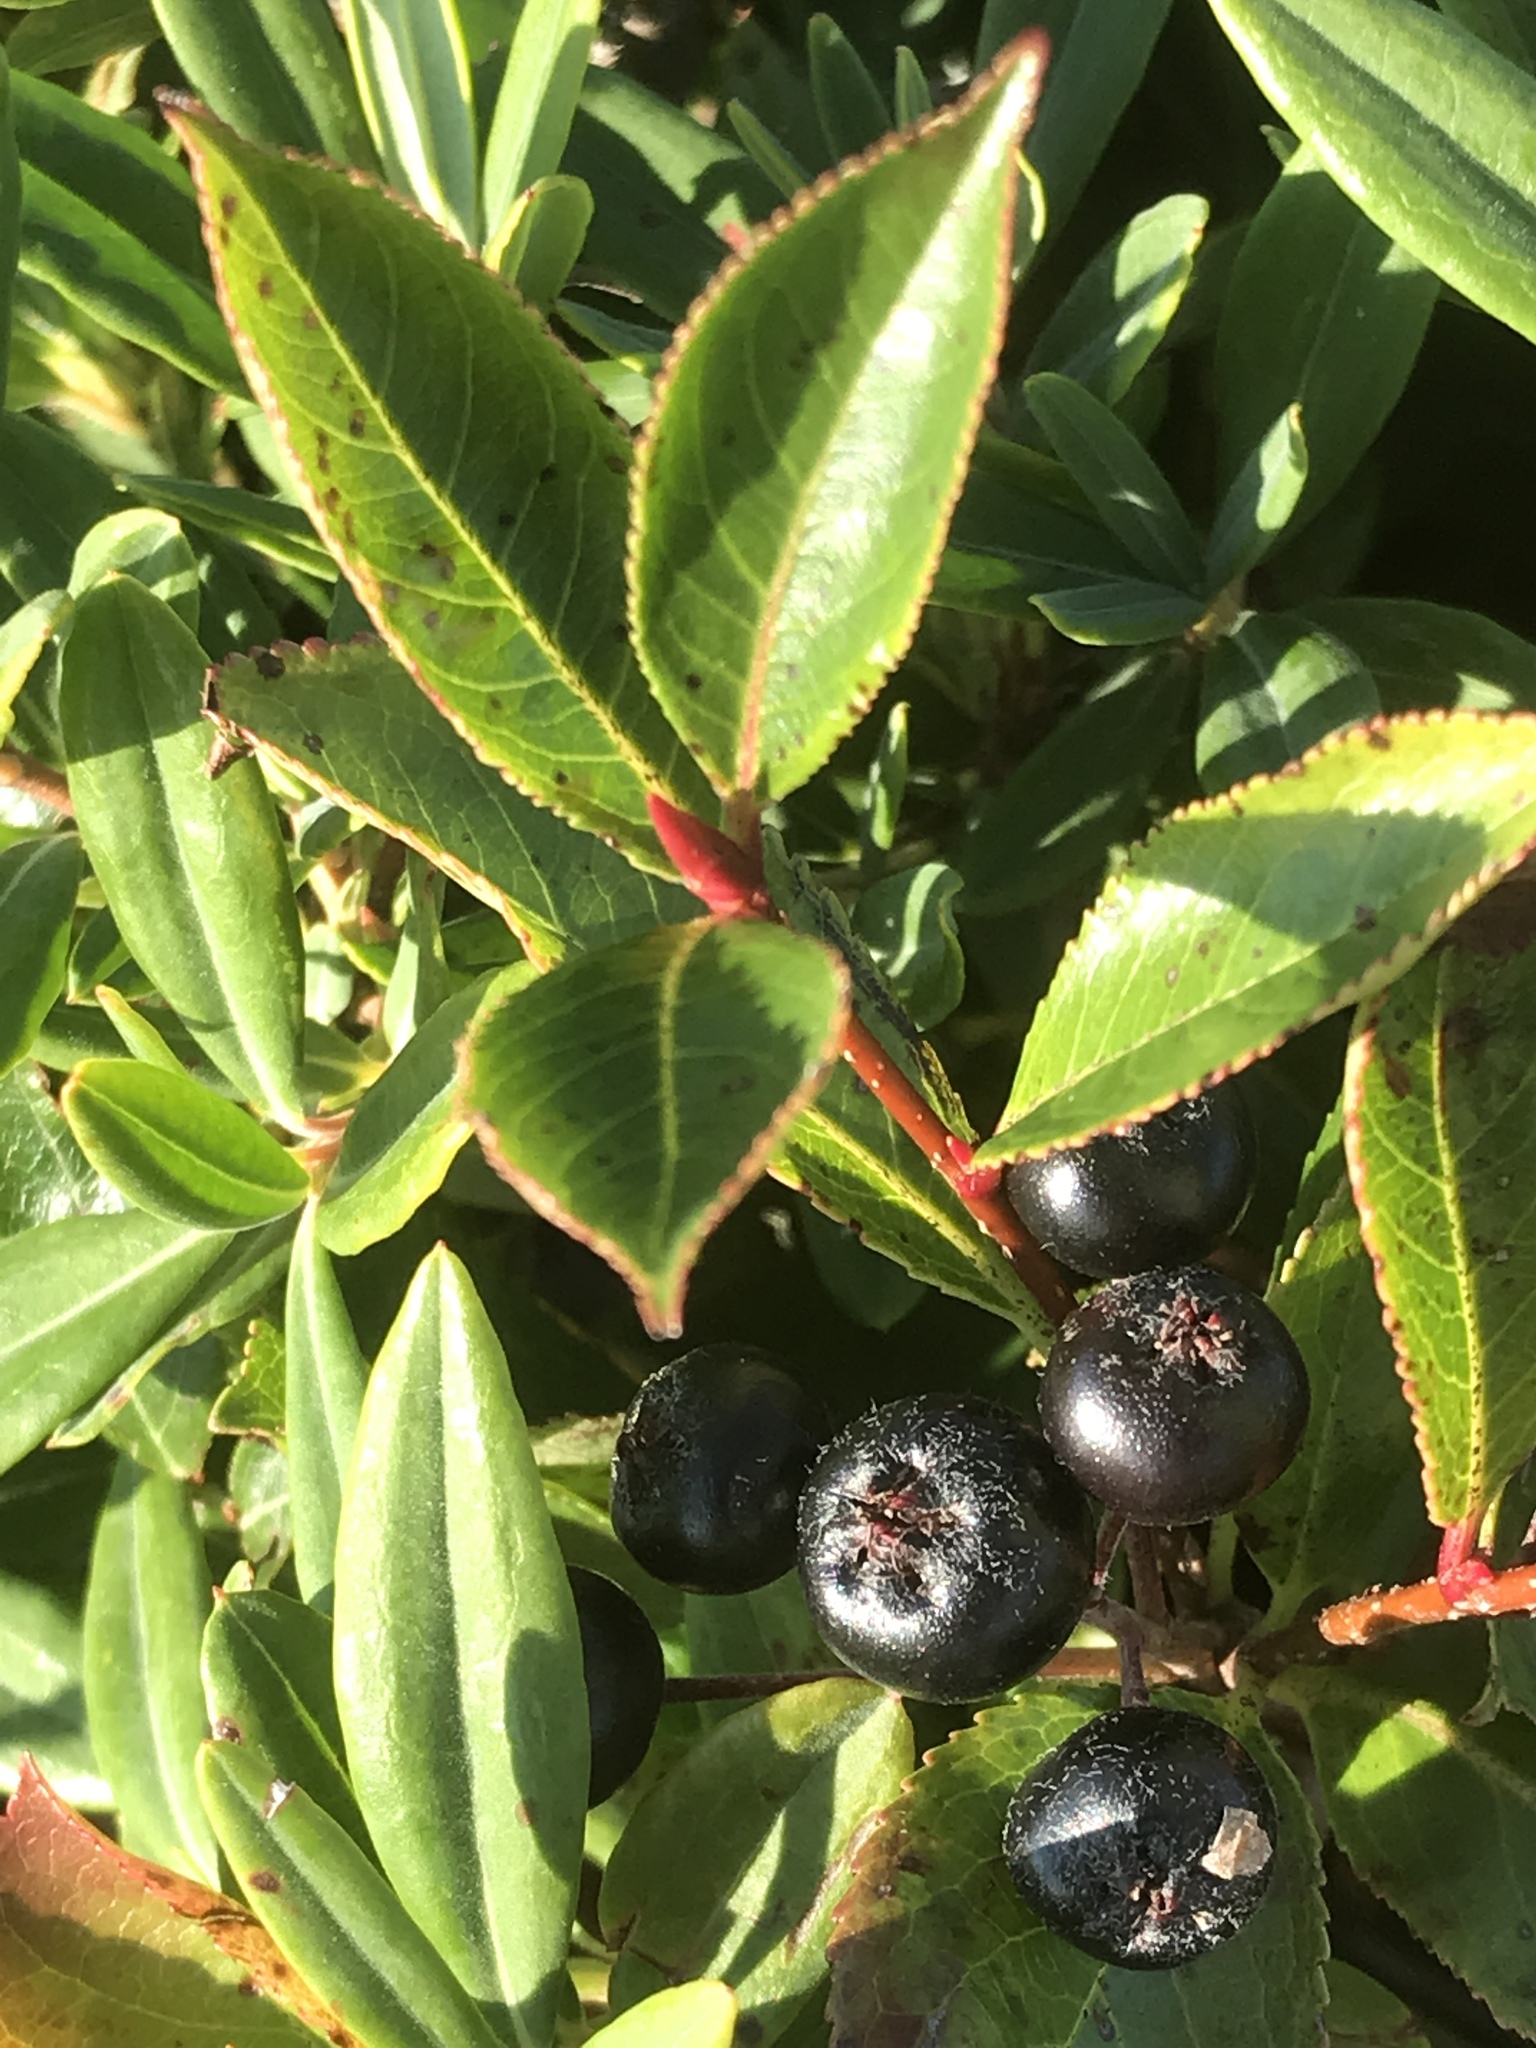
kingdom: Plantae
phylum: Tracheophyta
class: Magnoliopsida
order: Rosales
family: Rosaceae
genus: Aronia
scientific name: Aronia melanocarpa
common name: Black chokeberry
